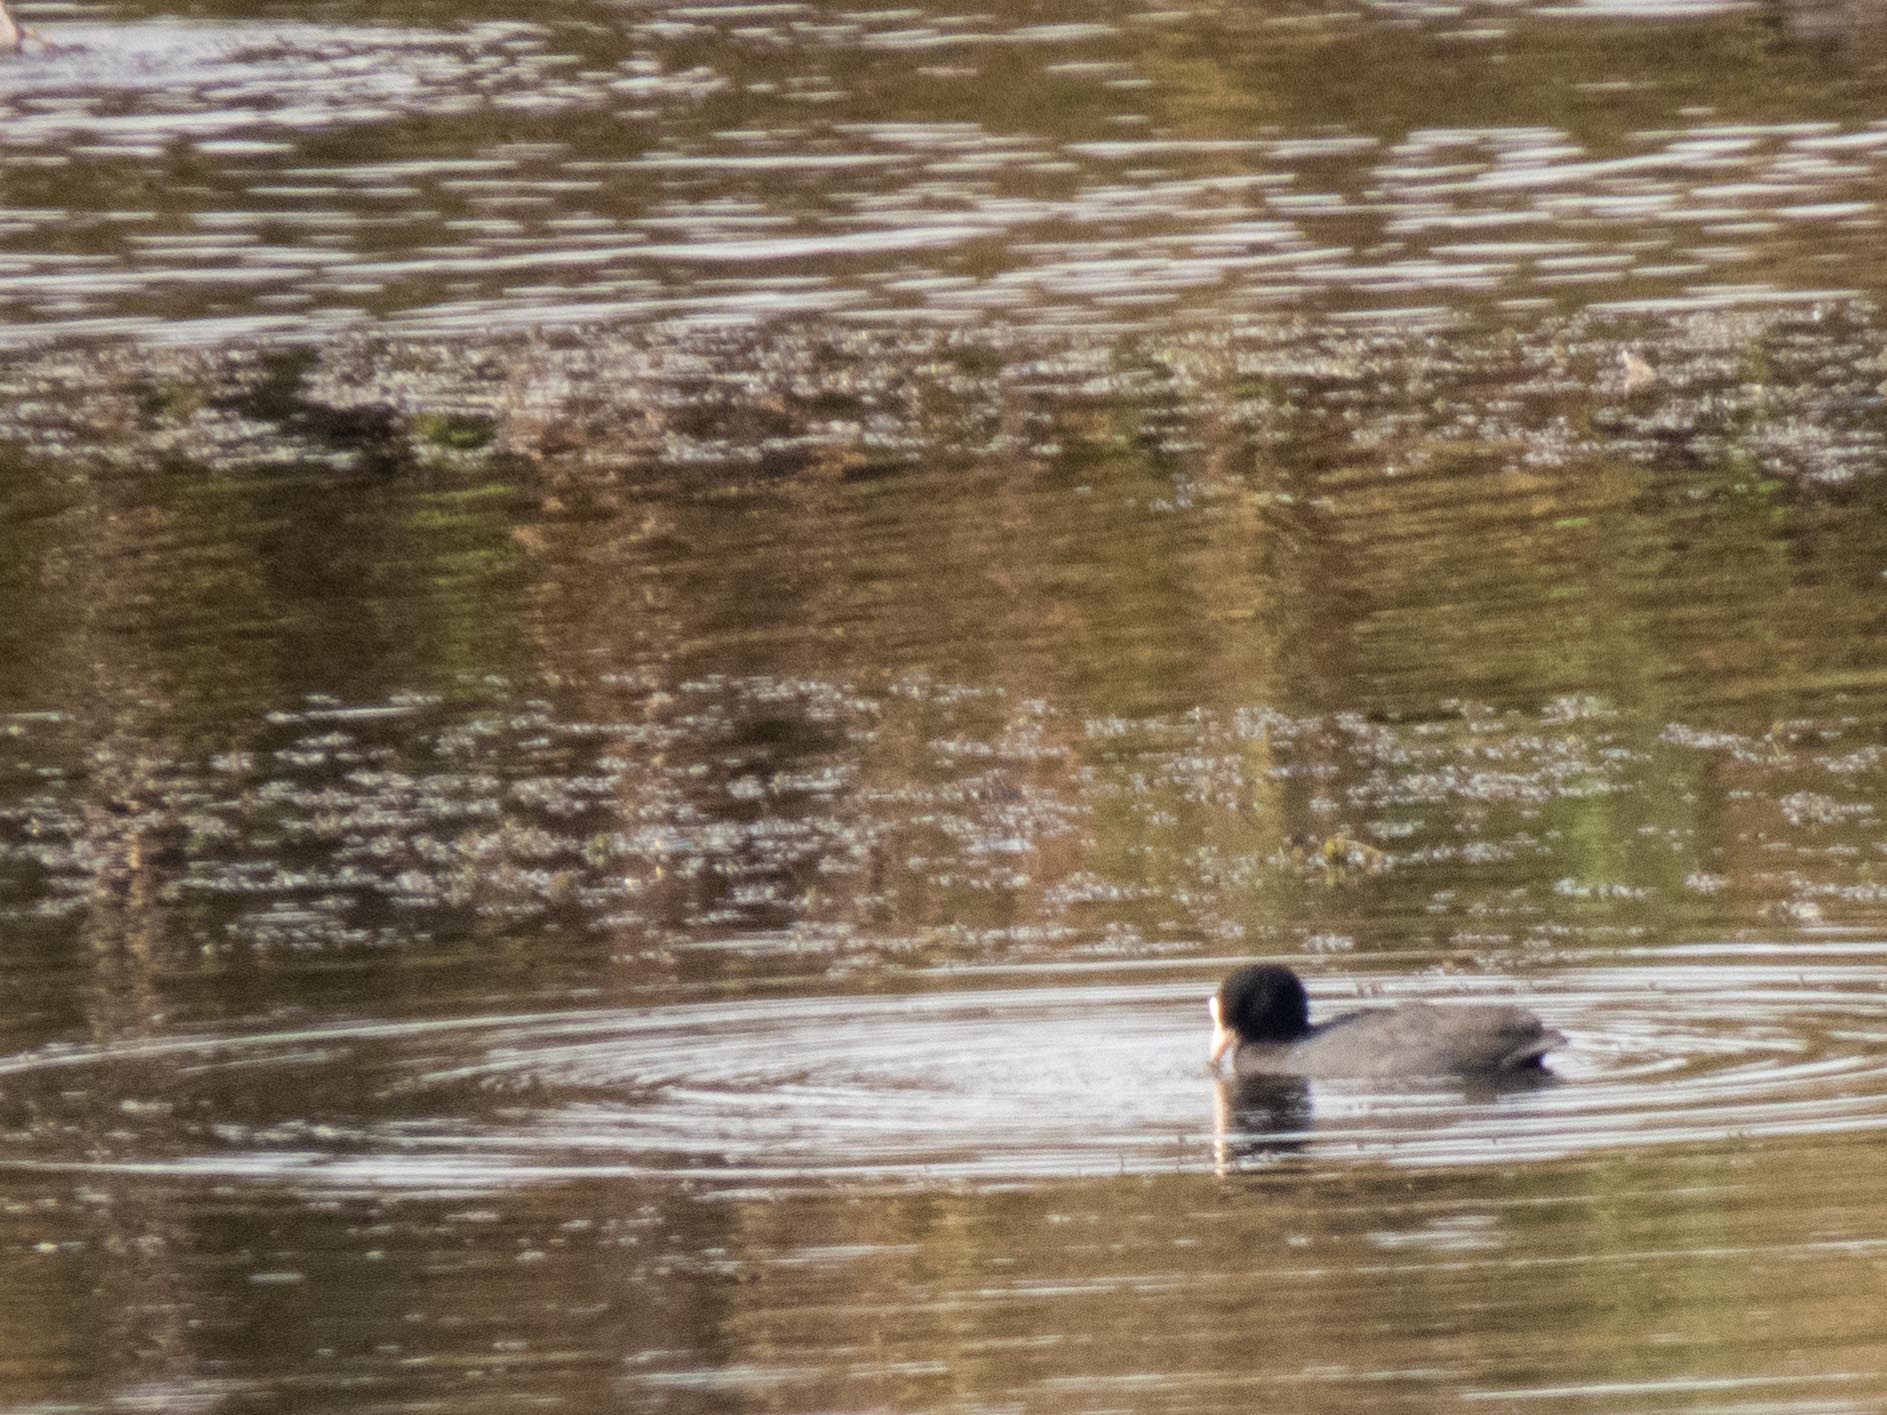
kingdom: Animalia
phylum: Chordata
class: Aves
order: Gruiformes
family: Rallidae
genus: Fulica
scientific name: Fulica atra
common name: Eurasian coot
